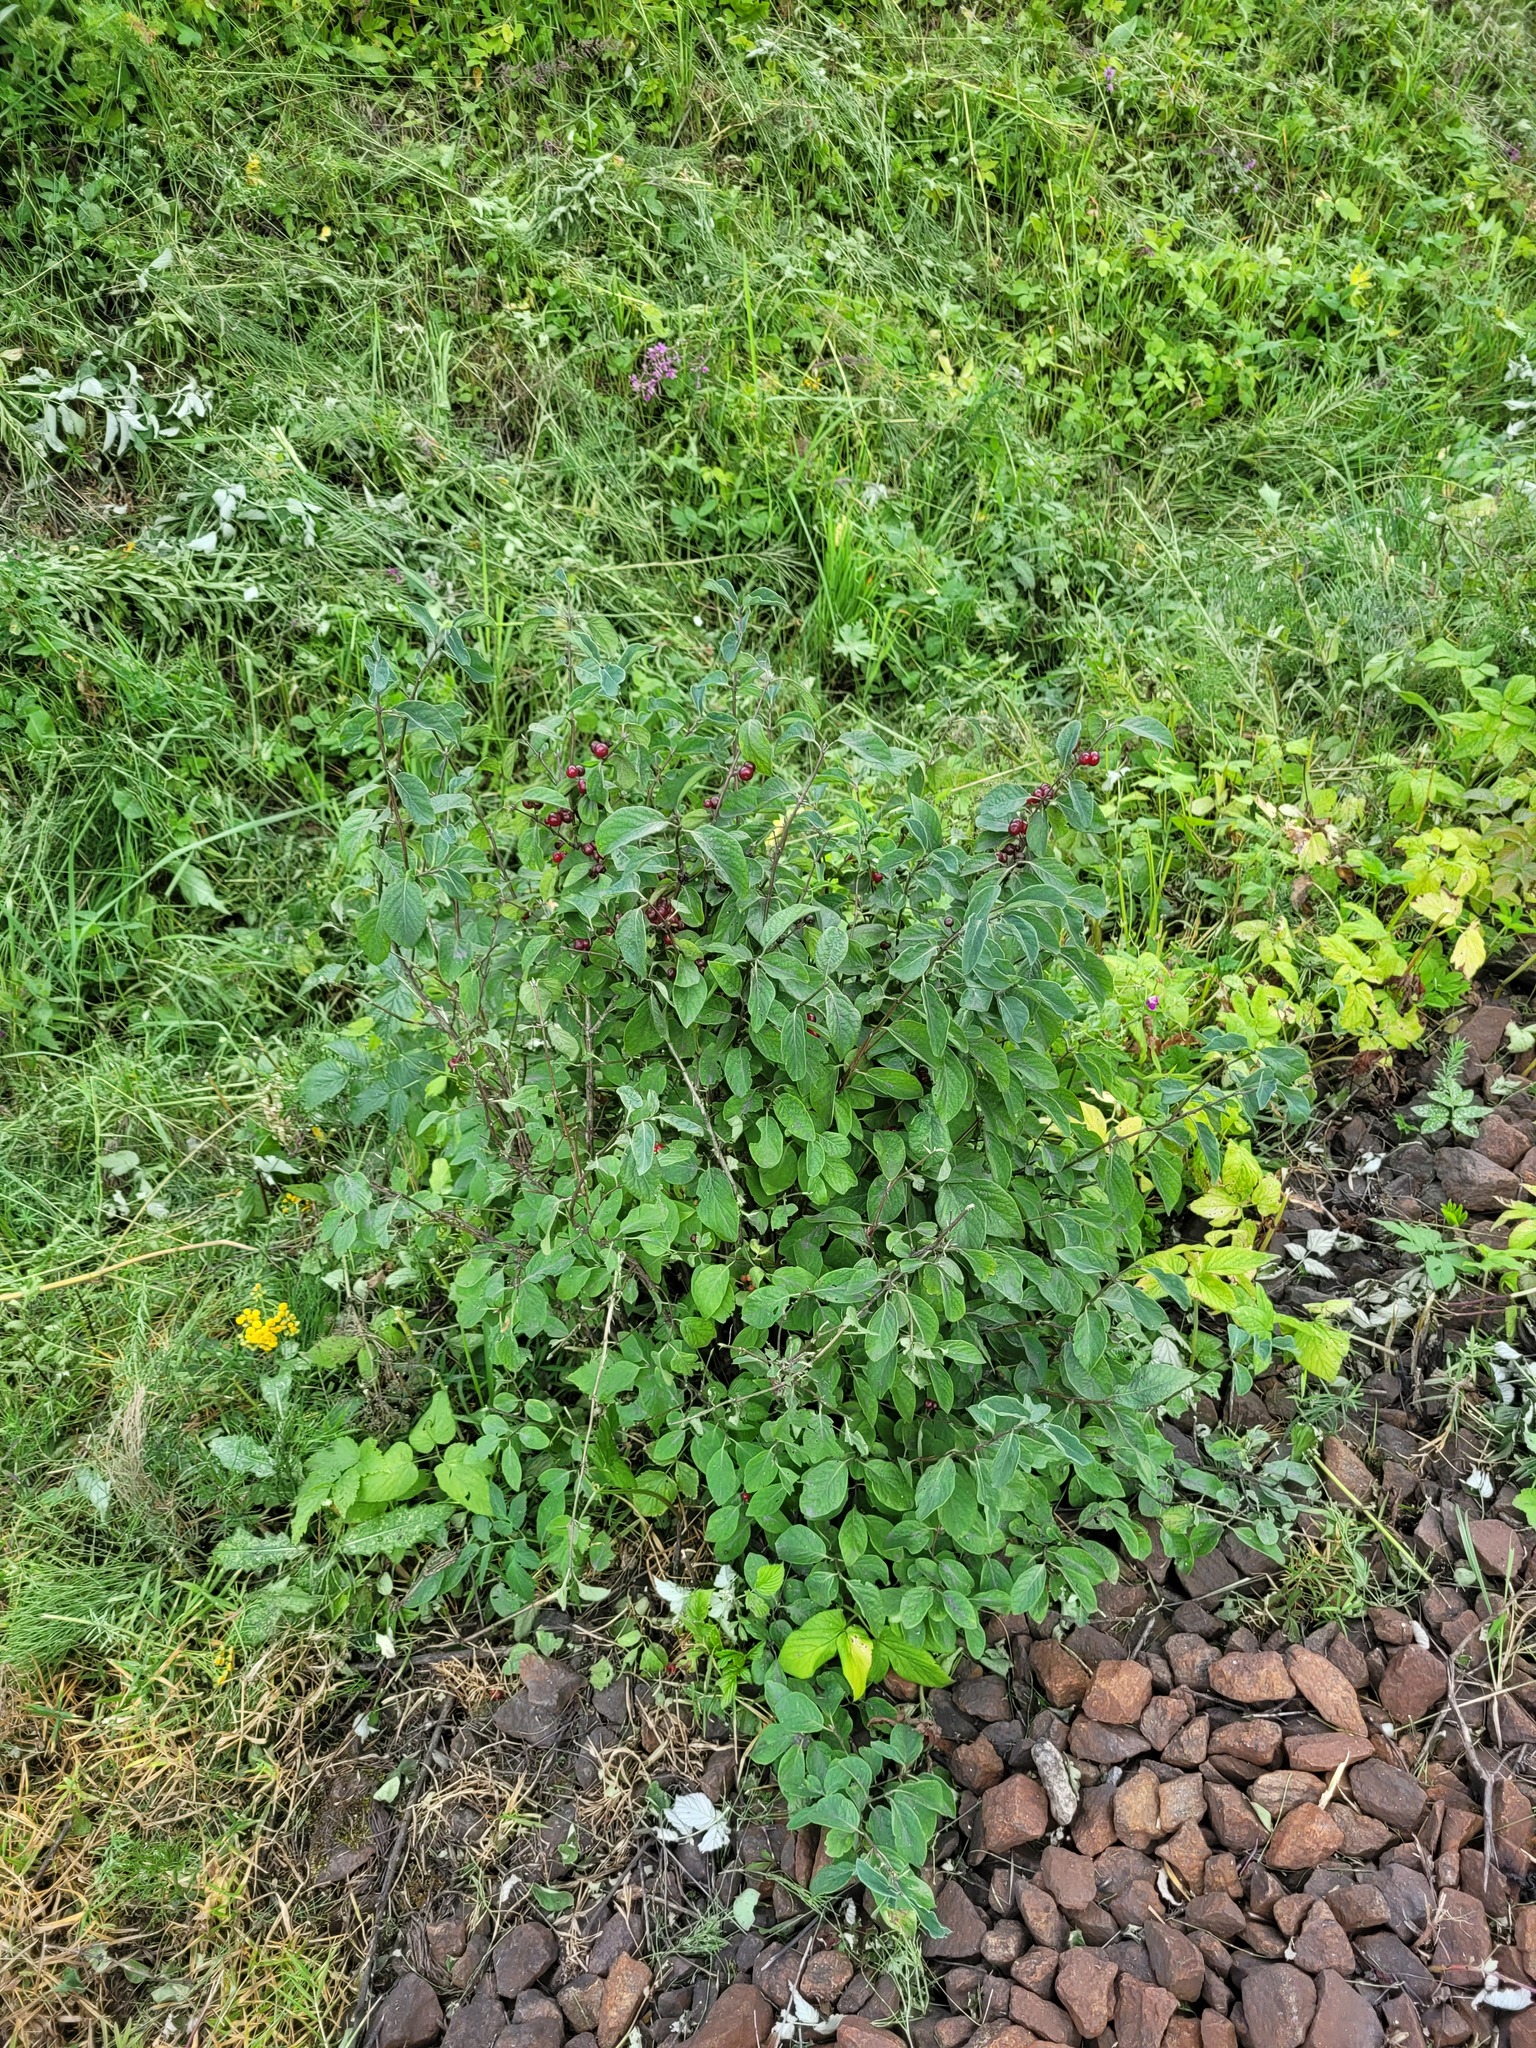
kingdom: Plantae
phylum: Tracheophyta
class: Magnoliopsida
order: Dipsacales
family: Caprifoliaceae
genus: Lonicera
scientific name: Lonicera xylosteum
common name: Fly honeysuckle
